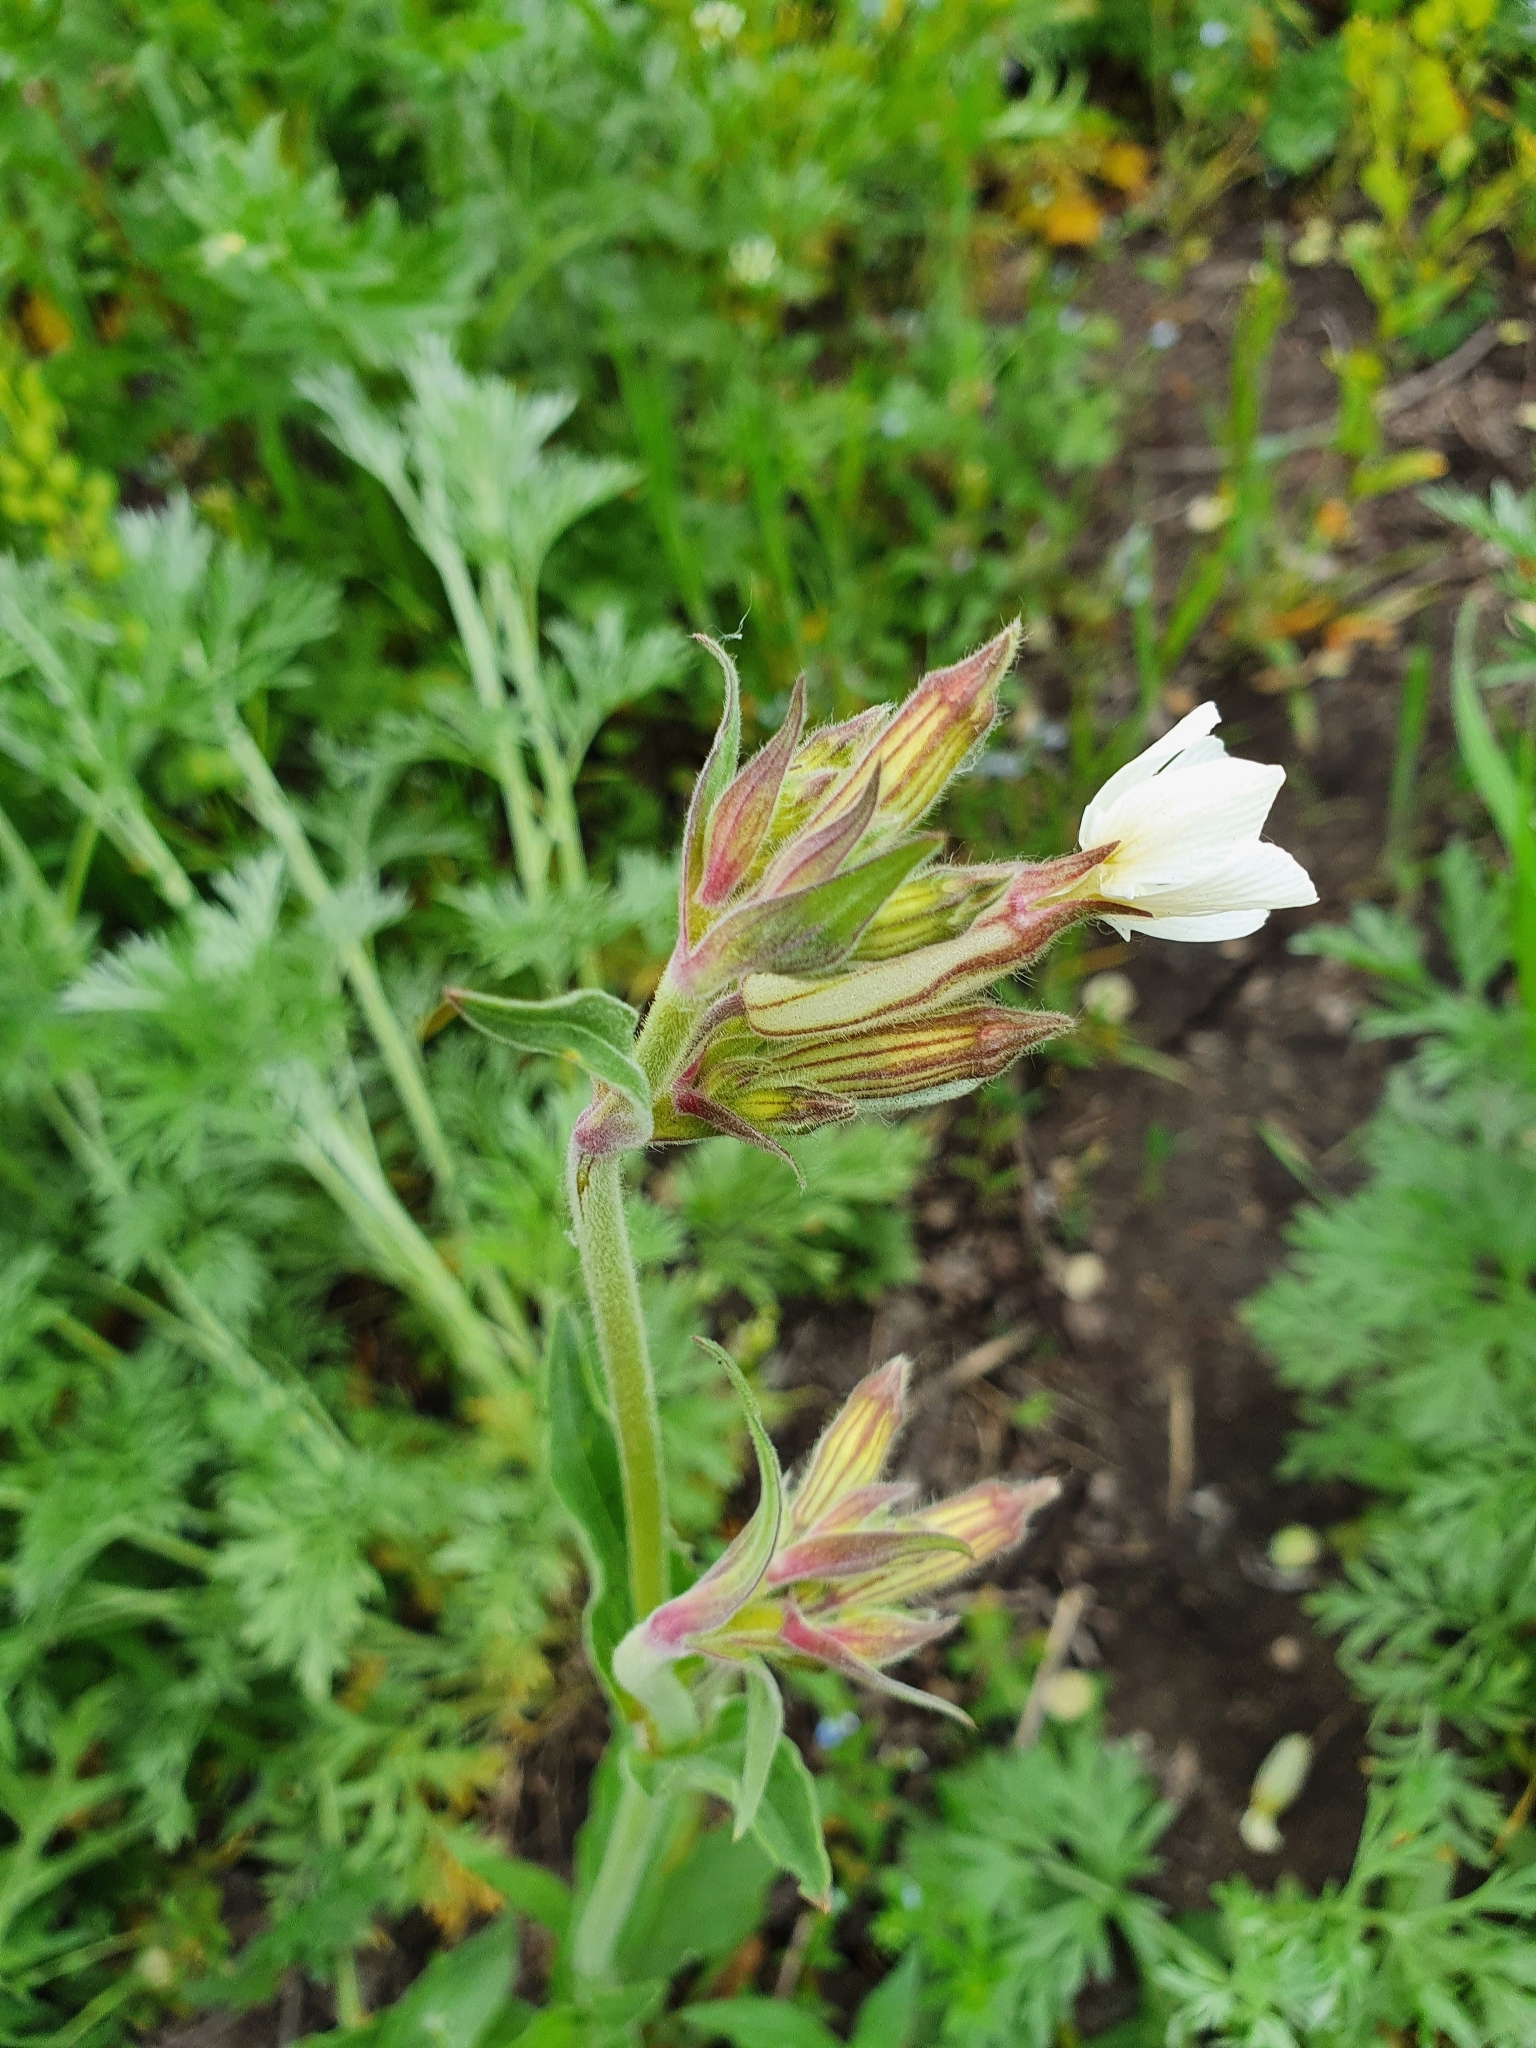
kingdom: Plantae
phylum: Tracheophyta
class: Magnoliopsida
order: Caryophyllales
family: Caryophyllaceae
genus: Silene
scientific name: Silene latifolia
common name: White campion
